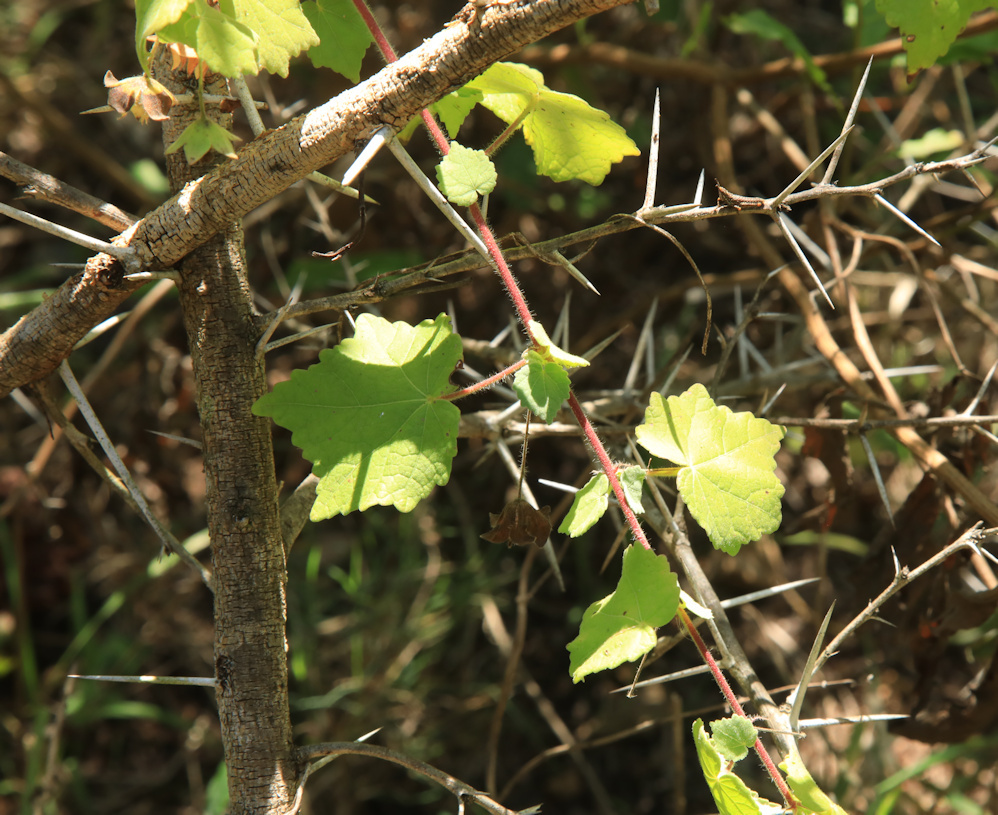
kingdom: Plantae
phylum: Tracheophyta
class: Magnoliopsida
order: Malvales
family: Malvaceae
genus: Pavonia
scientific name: Pavonia burchellii
